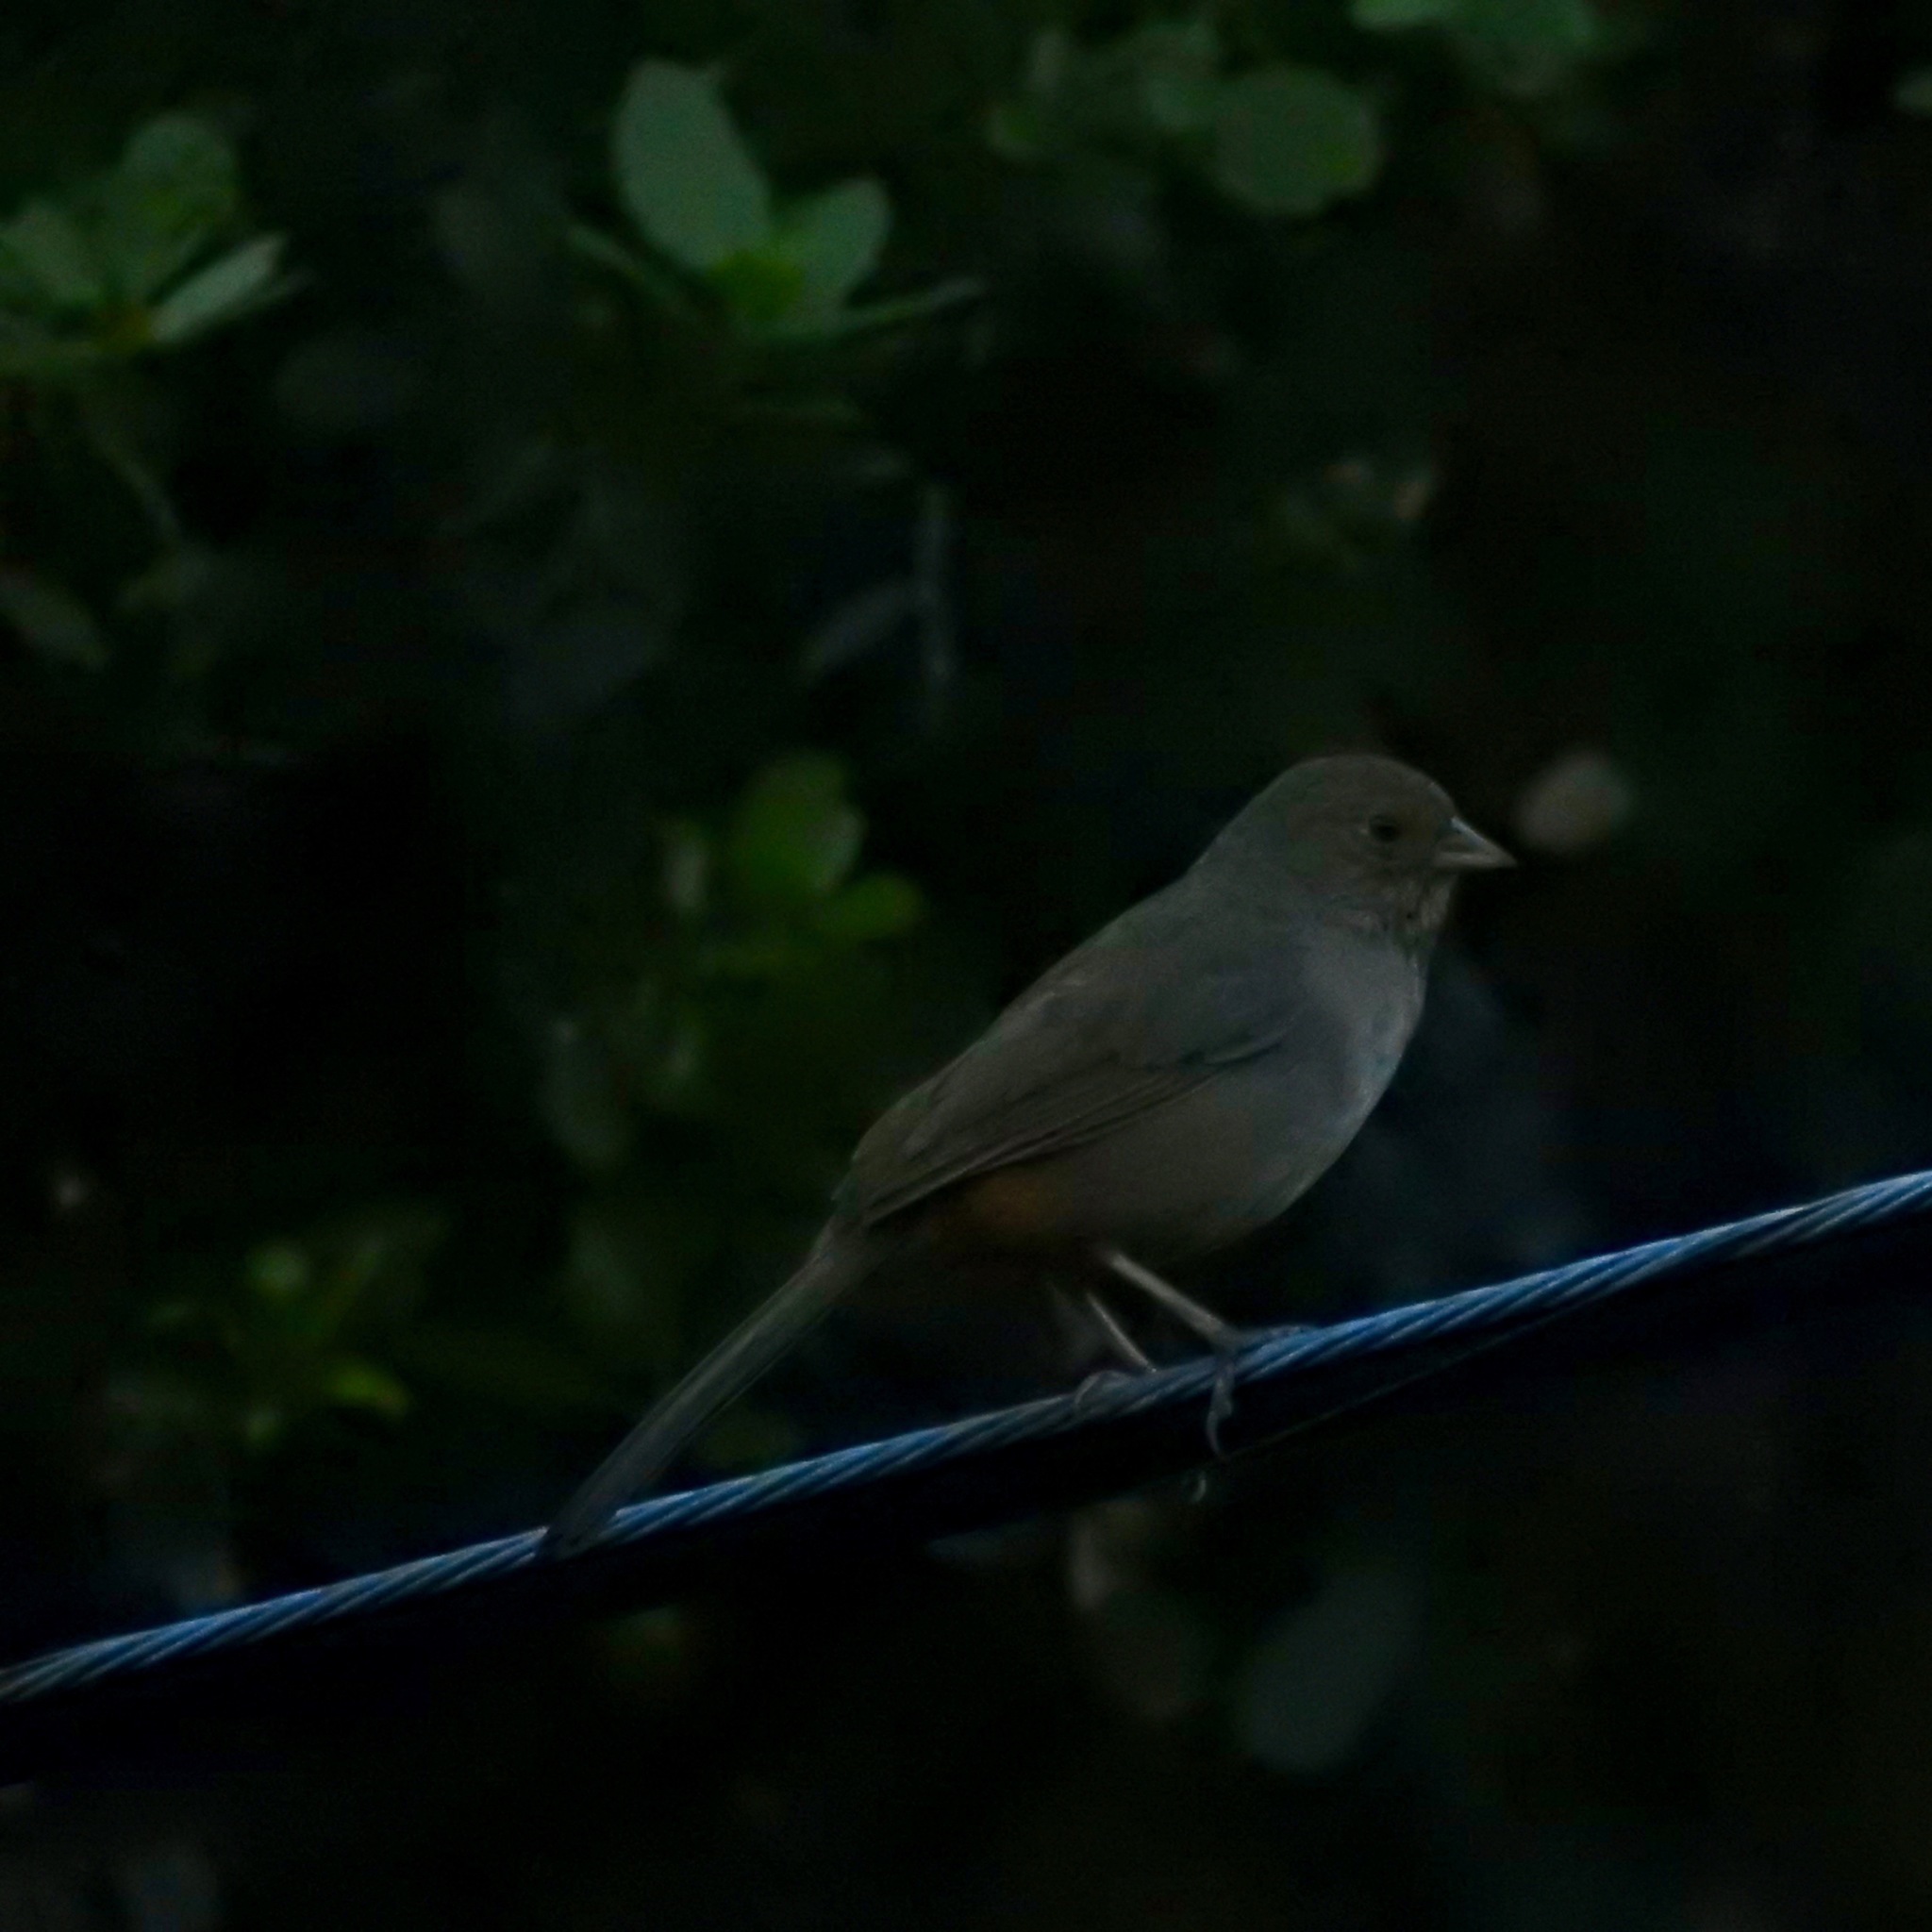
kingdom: Animalia
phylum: Chordata
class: Aves
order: Passeriformes
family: Passerellidae
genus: Melozone
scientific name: Melozone crissalis
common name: California towhee
